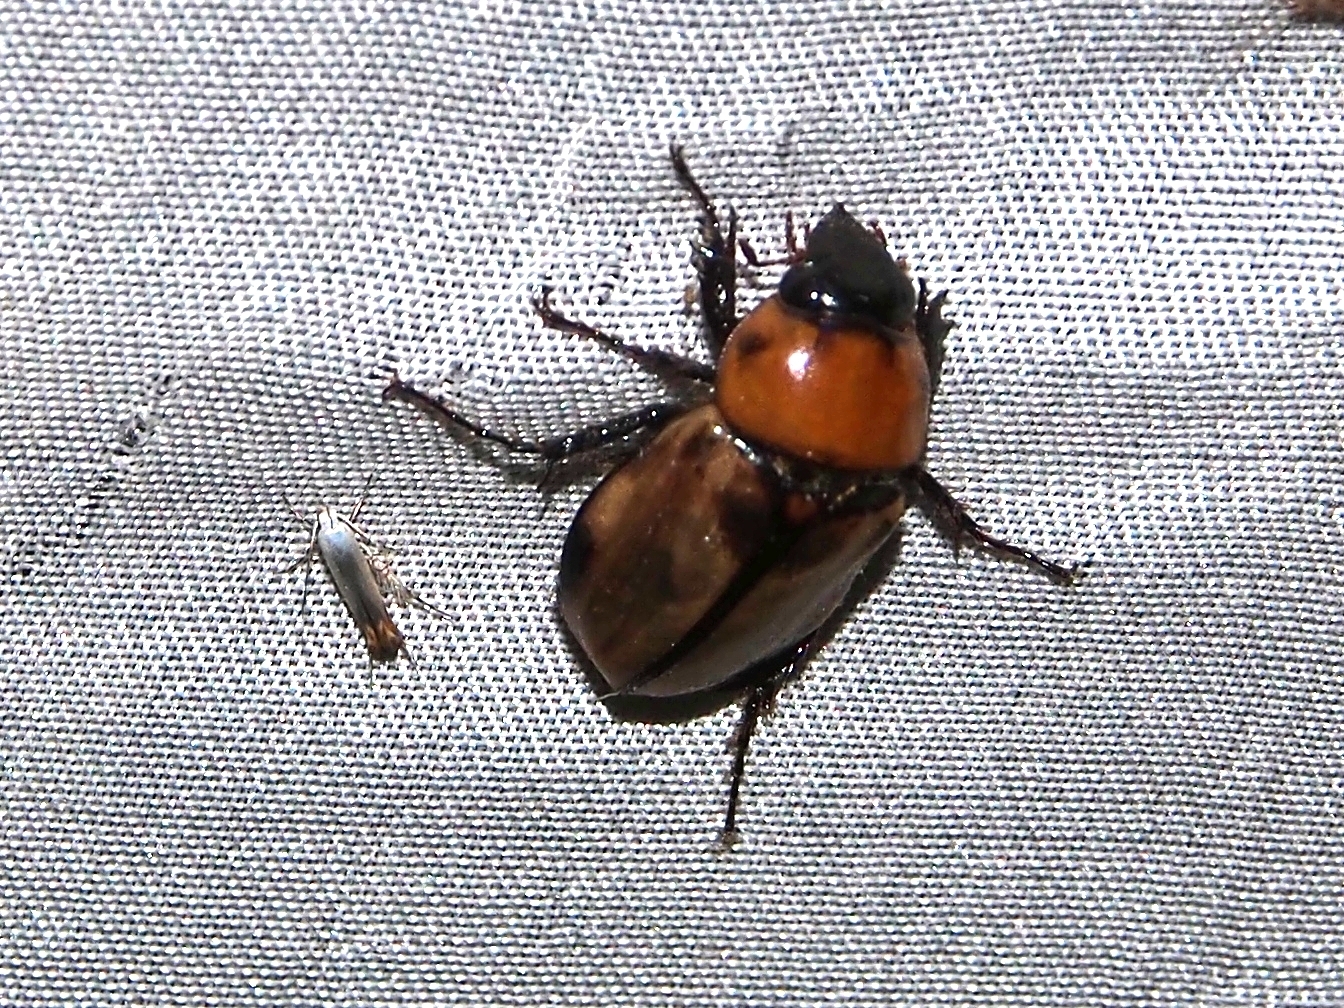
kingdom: Animalia
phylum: Arthropoda
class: Insecta
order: Coleoptera
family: Scarabaeidae
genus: Mimeoma
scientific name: Mimeoma acuta
